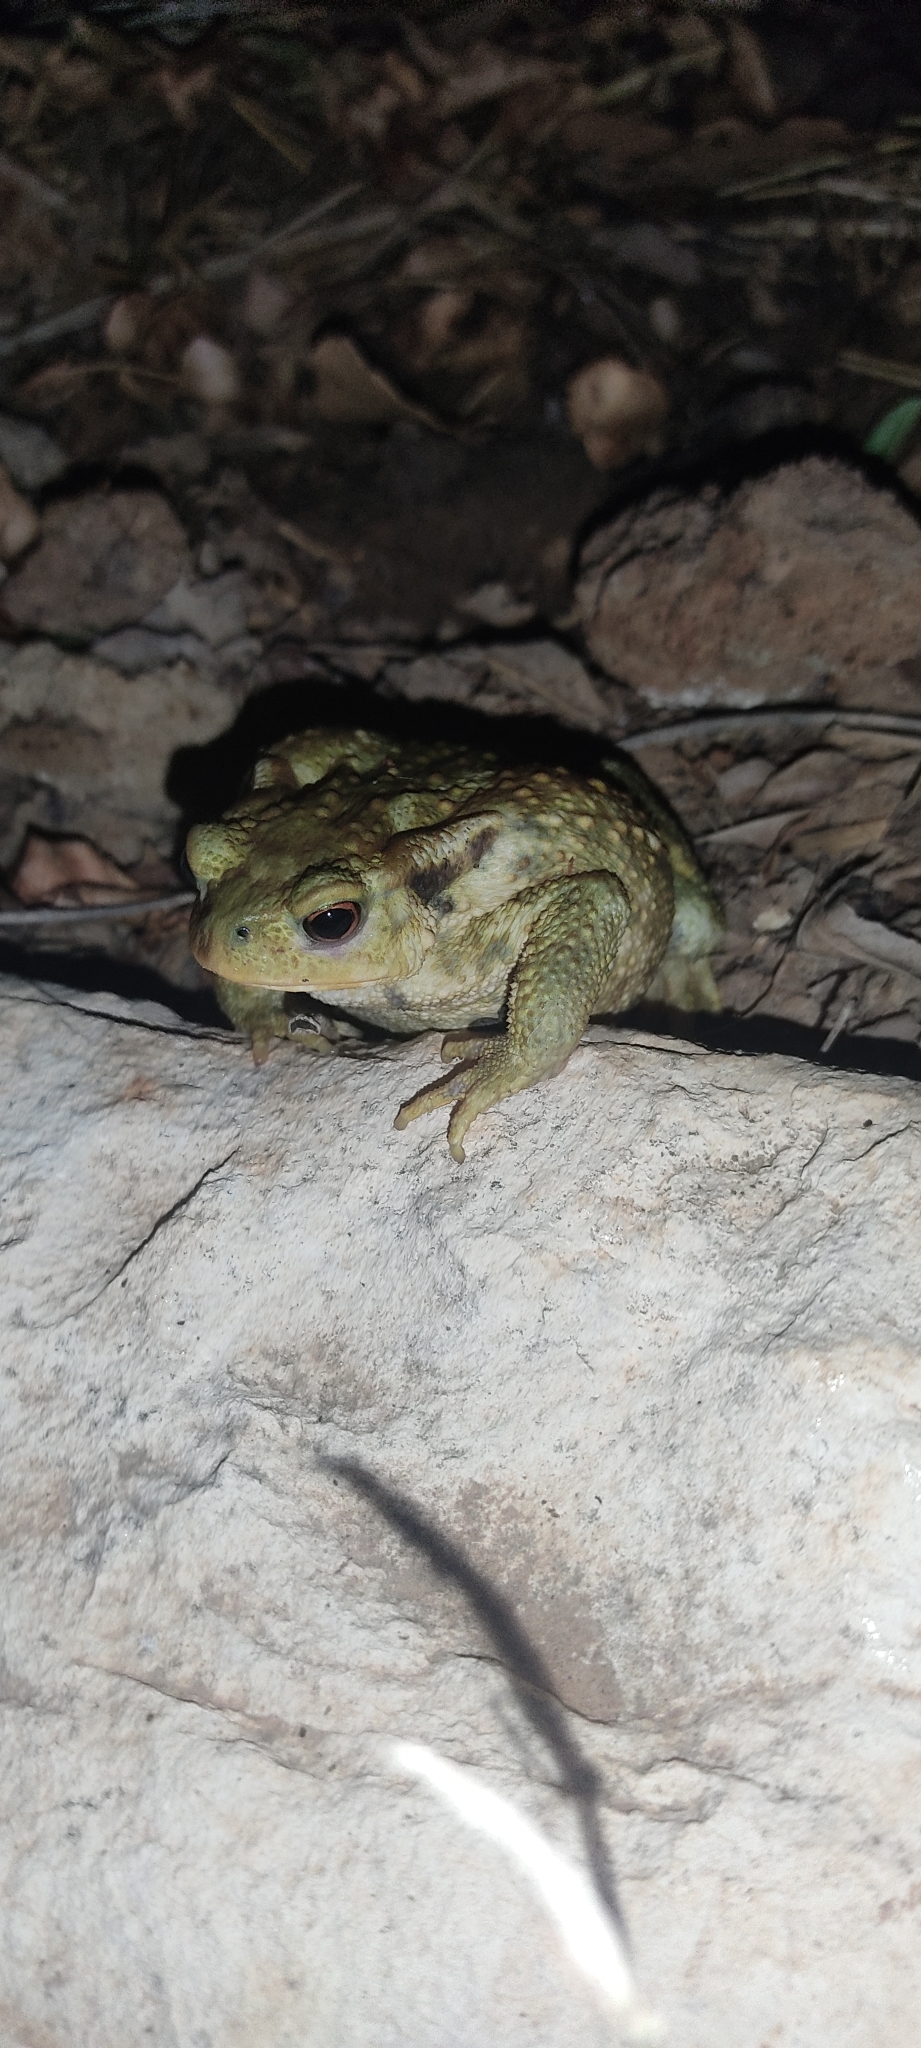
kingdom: Animalia
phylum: Chordata
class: Amphibia
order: Anura
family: Bufonidae
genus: Bufo
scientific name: Bufo spinosus
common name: Western common toad
